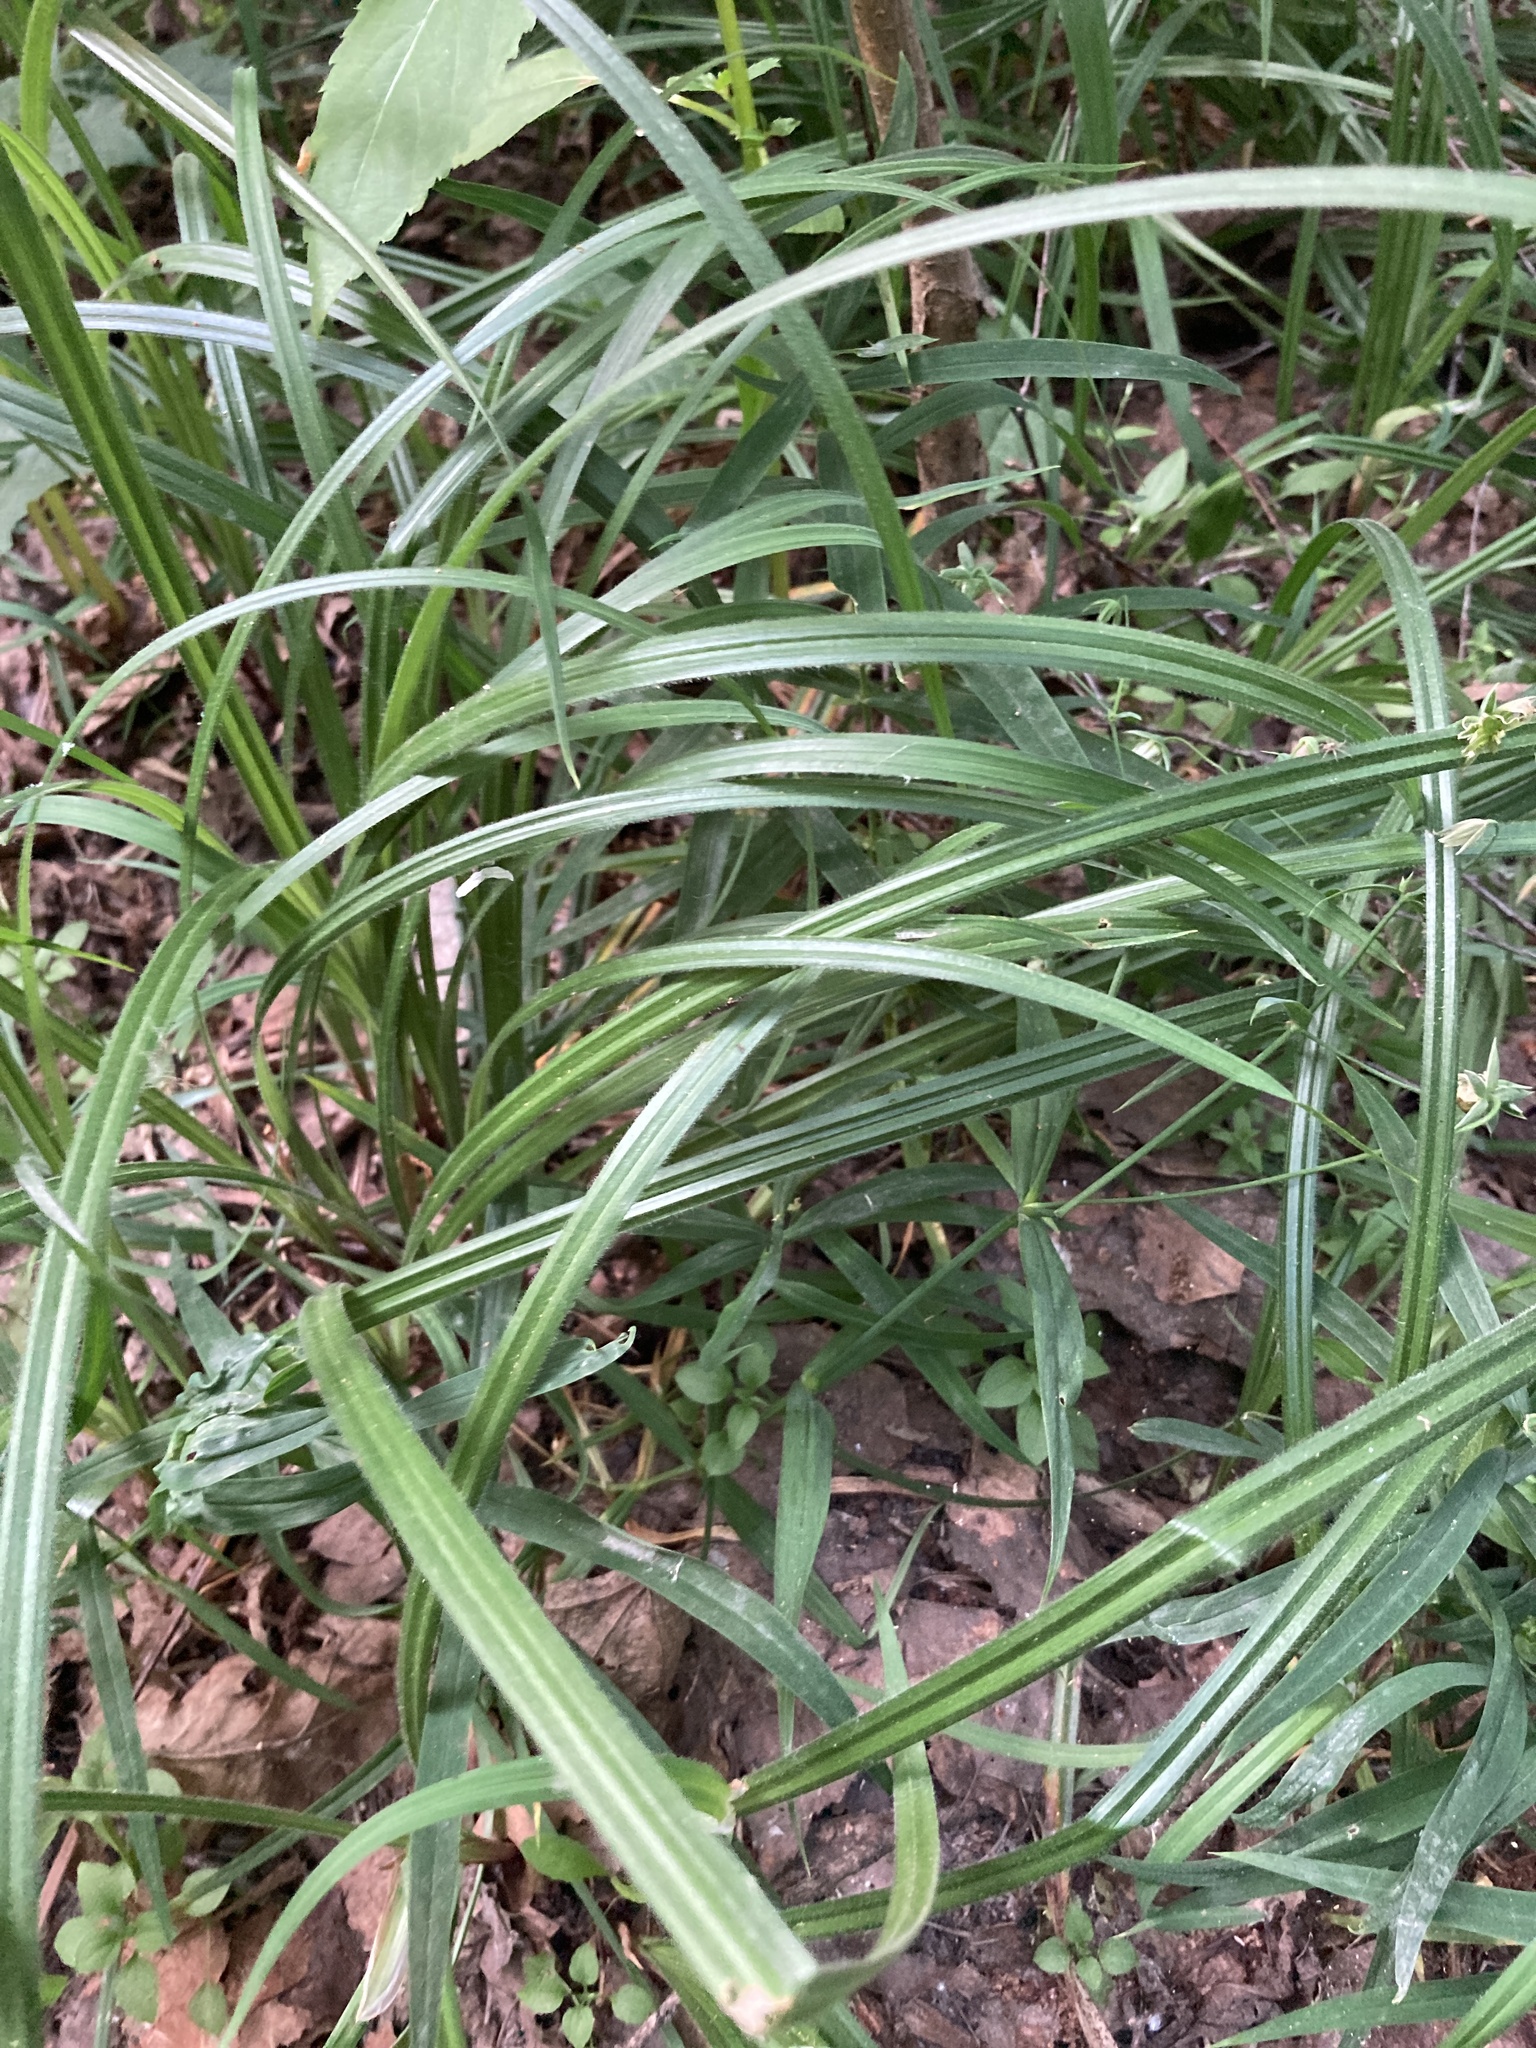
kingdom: Plantae
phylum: Tracheophyta
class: Liliopsida
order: Poales
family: Cyperaceae
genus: Carex
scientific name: Carex pilosa
